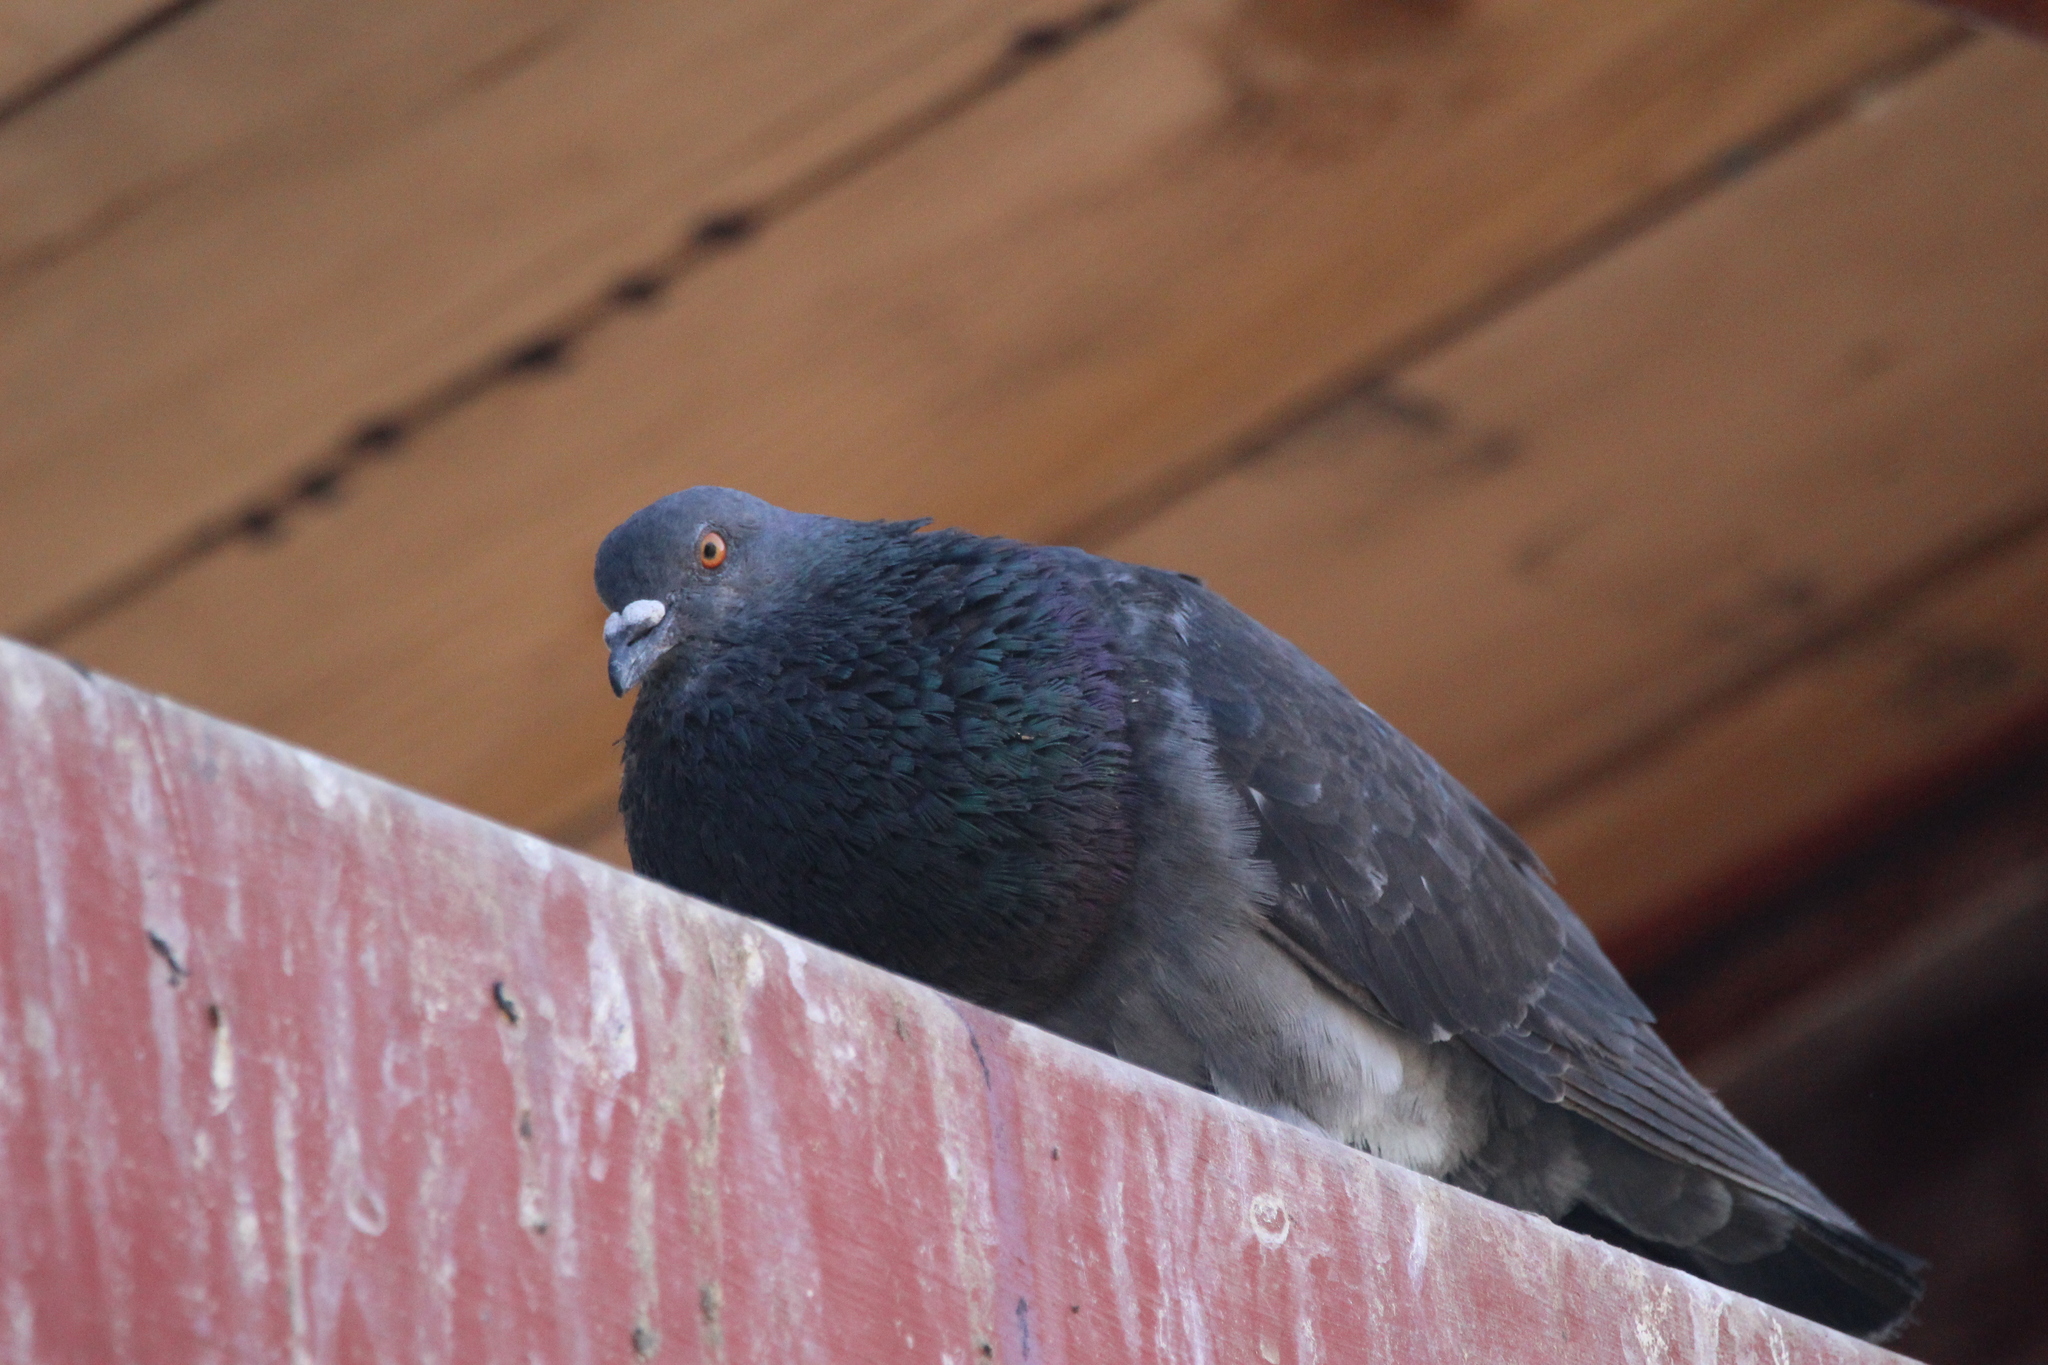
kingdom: Animalia
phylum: Chordata
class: Aves
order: Columbiformes
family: Columbidae
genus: Columba
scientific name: Columba livia
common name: Rock pigeon
